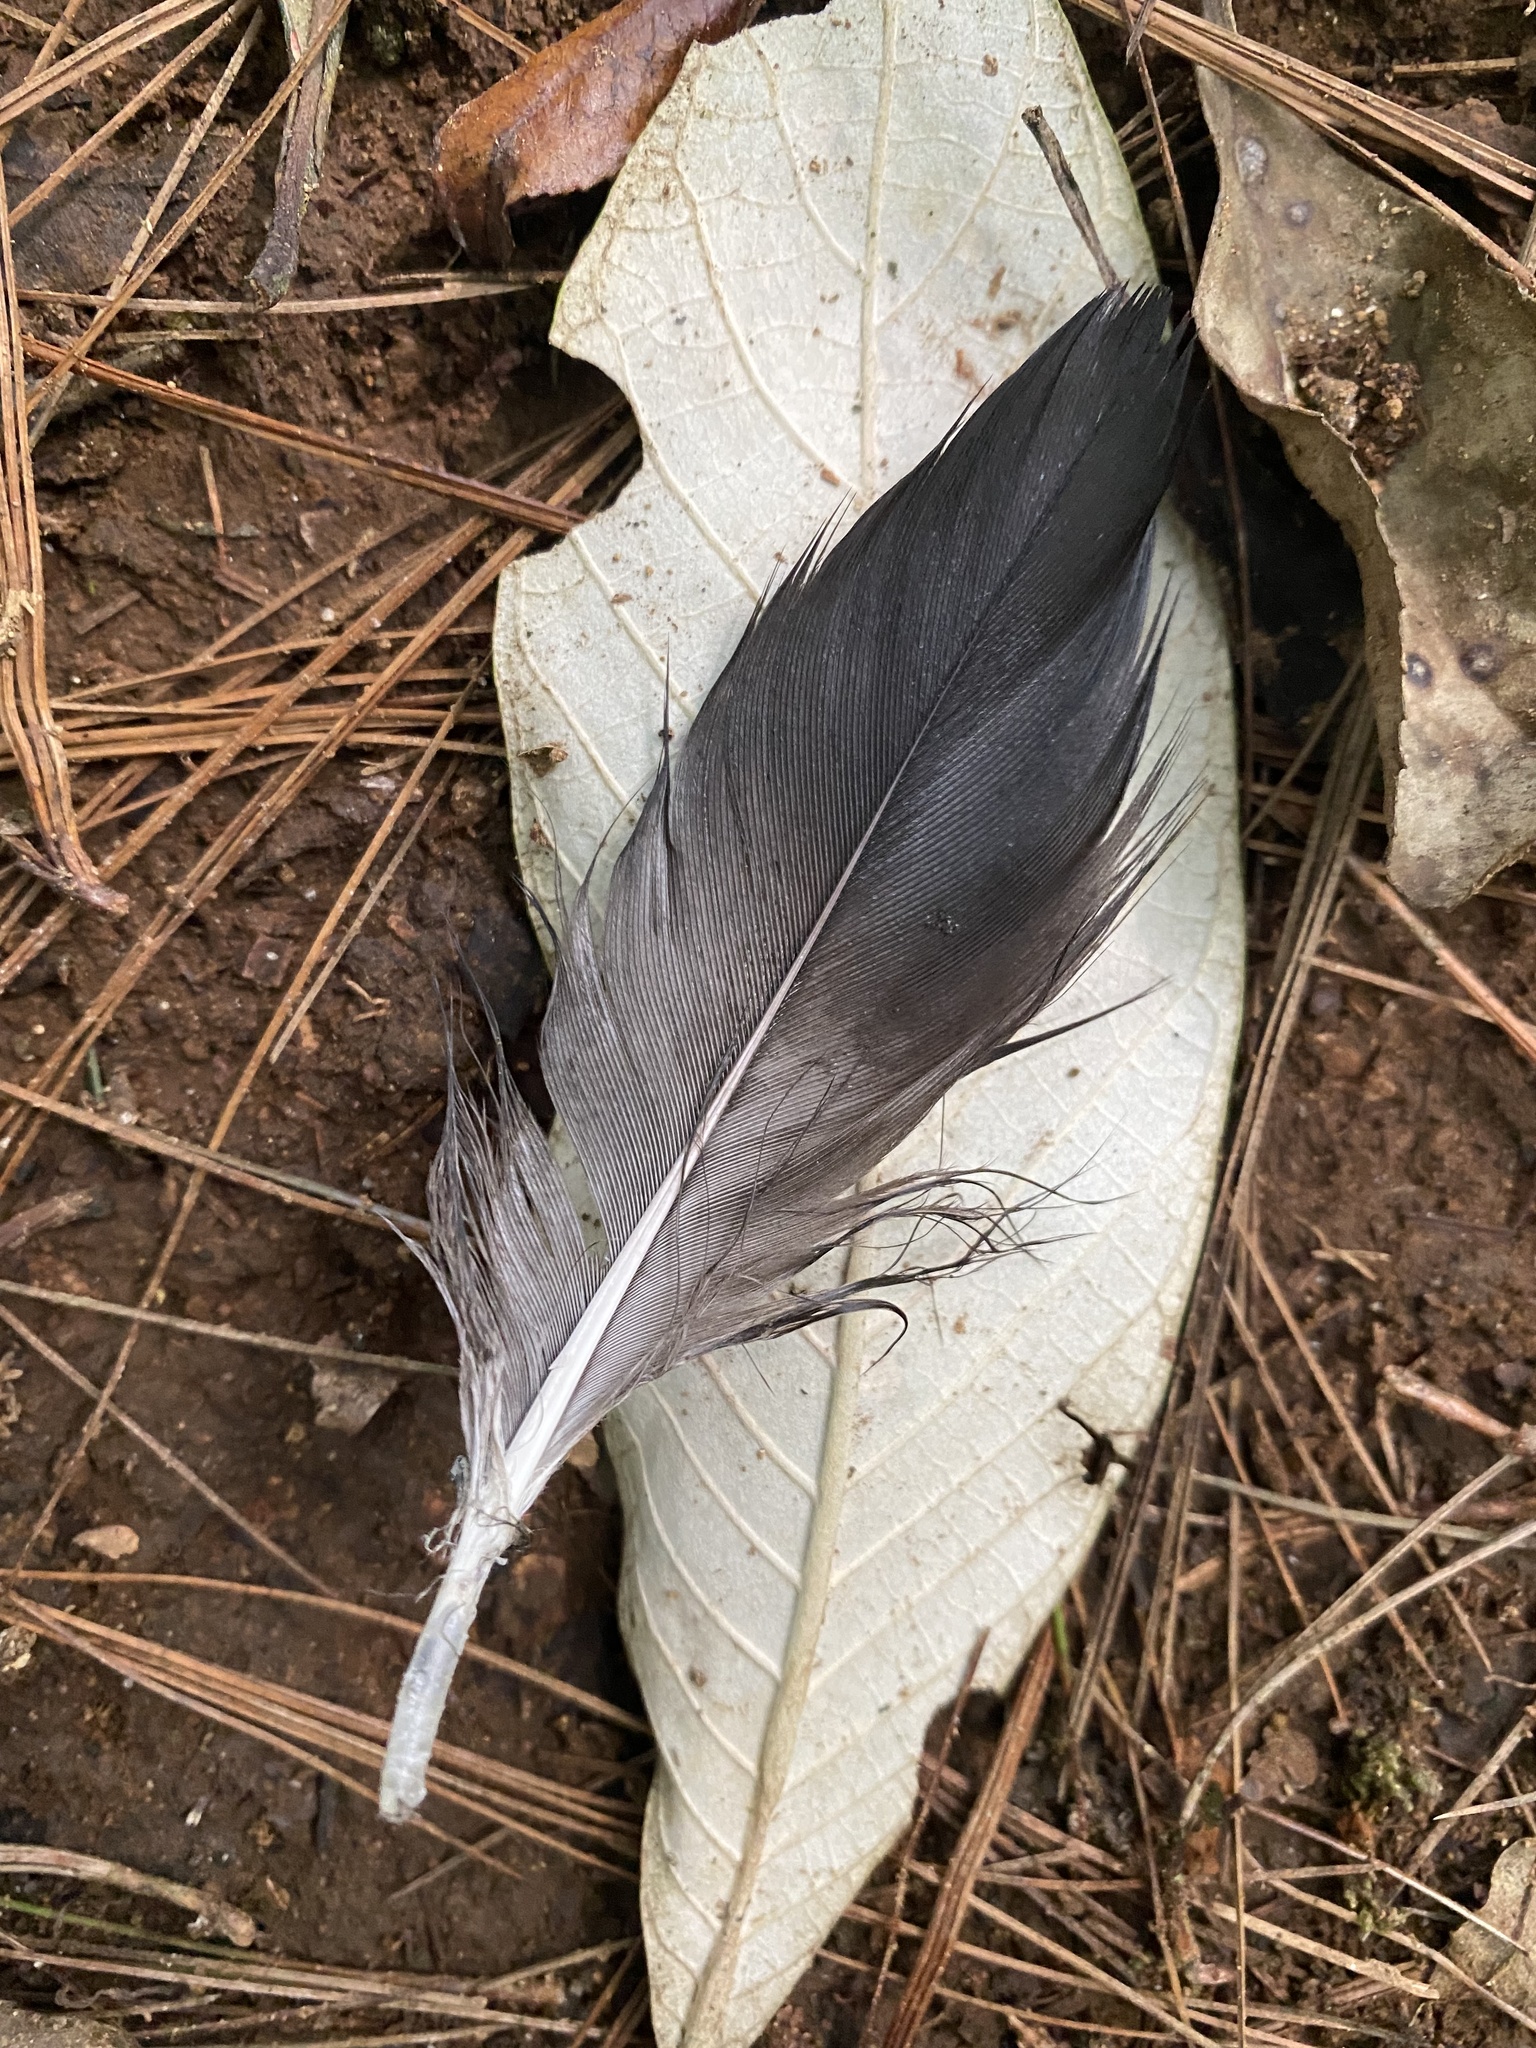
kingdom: Animalia
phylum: Chordata
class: Aves
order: Passeriformes
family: Corvidae
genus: Cyanocorax
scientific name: Cyanocorax melanocyaneus
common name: Bushy-crested jay
